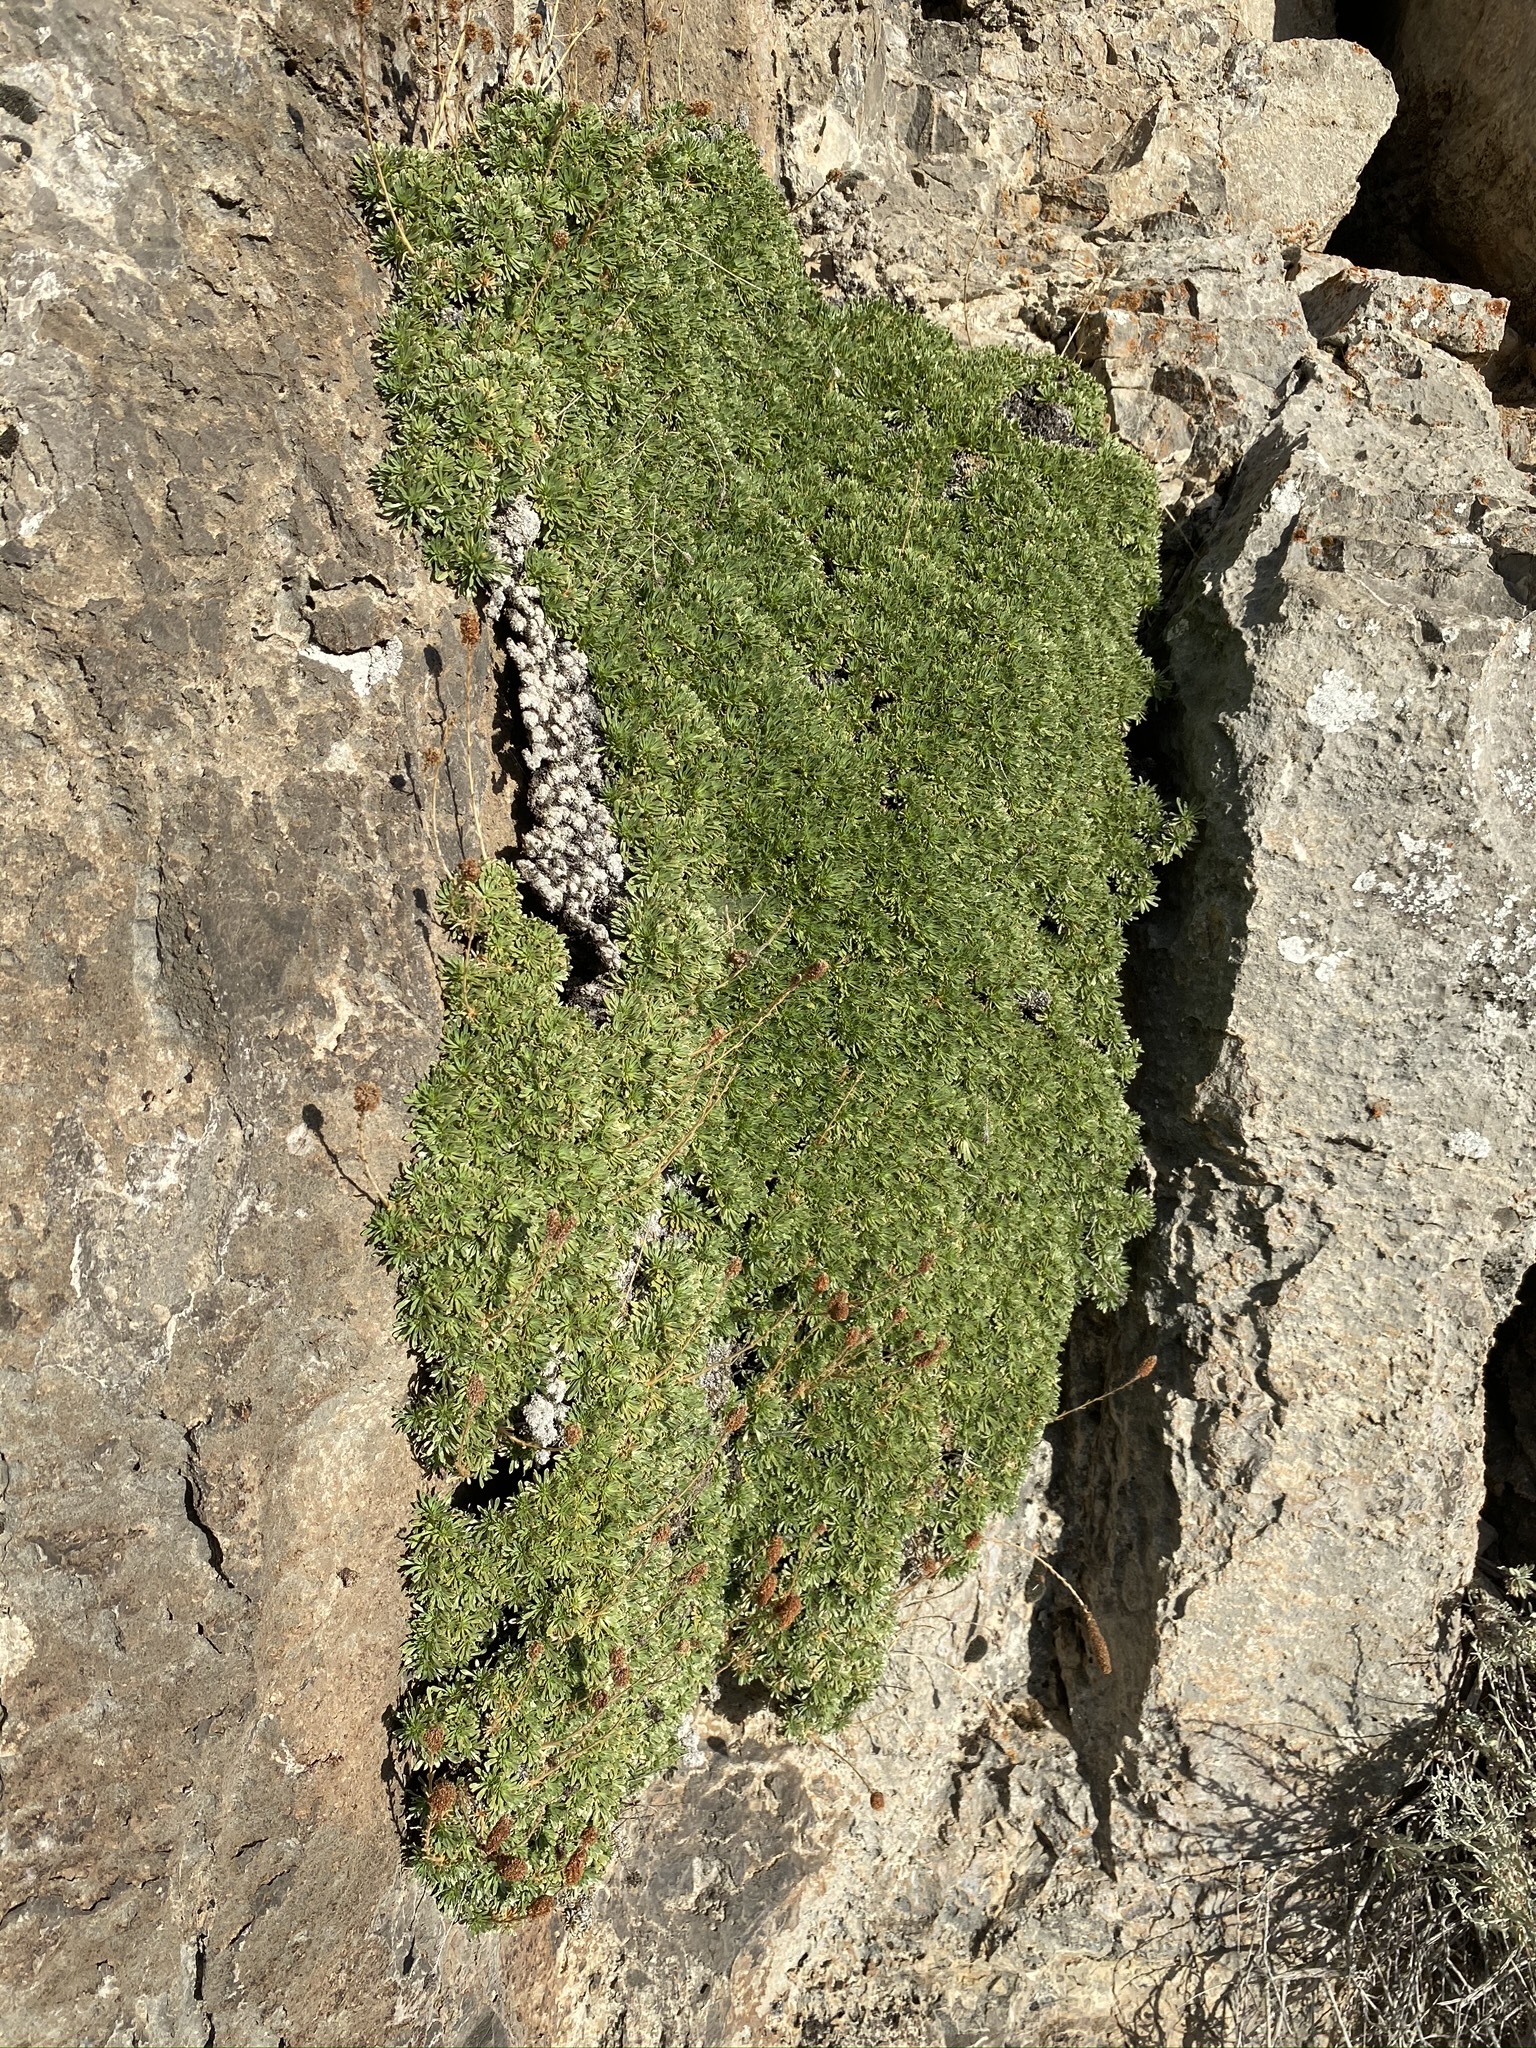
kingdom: Plantae
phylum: Tracheophyta
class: Magnoliopsida
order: Rosales
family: Rosaceae
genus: Petrophytum
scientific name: Petrophytum caespitosum
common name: Mat rockspirea
